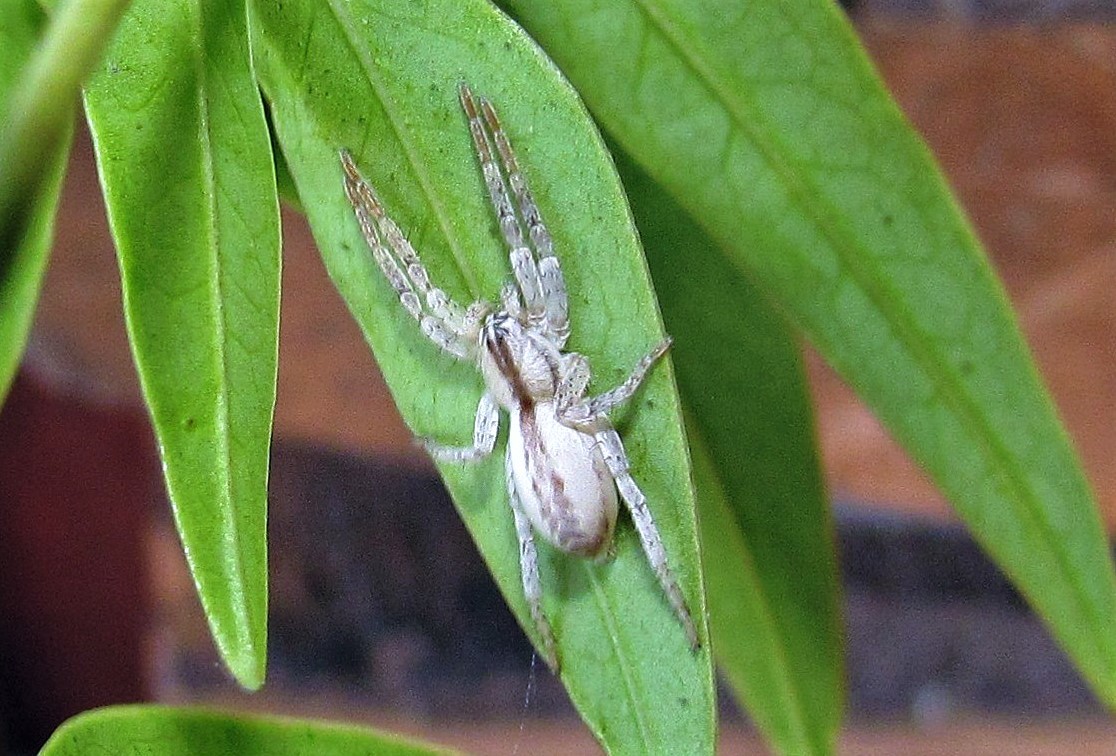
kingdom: Animalia
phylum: Arthropoda
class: Arachnida
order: Araneae
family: Anyphaenidae
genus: Arachosia
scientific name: Arachosia praesignis
